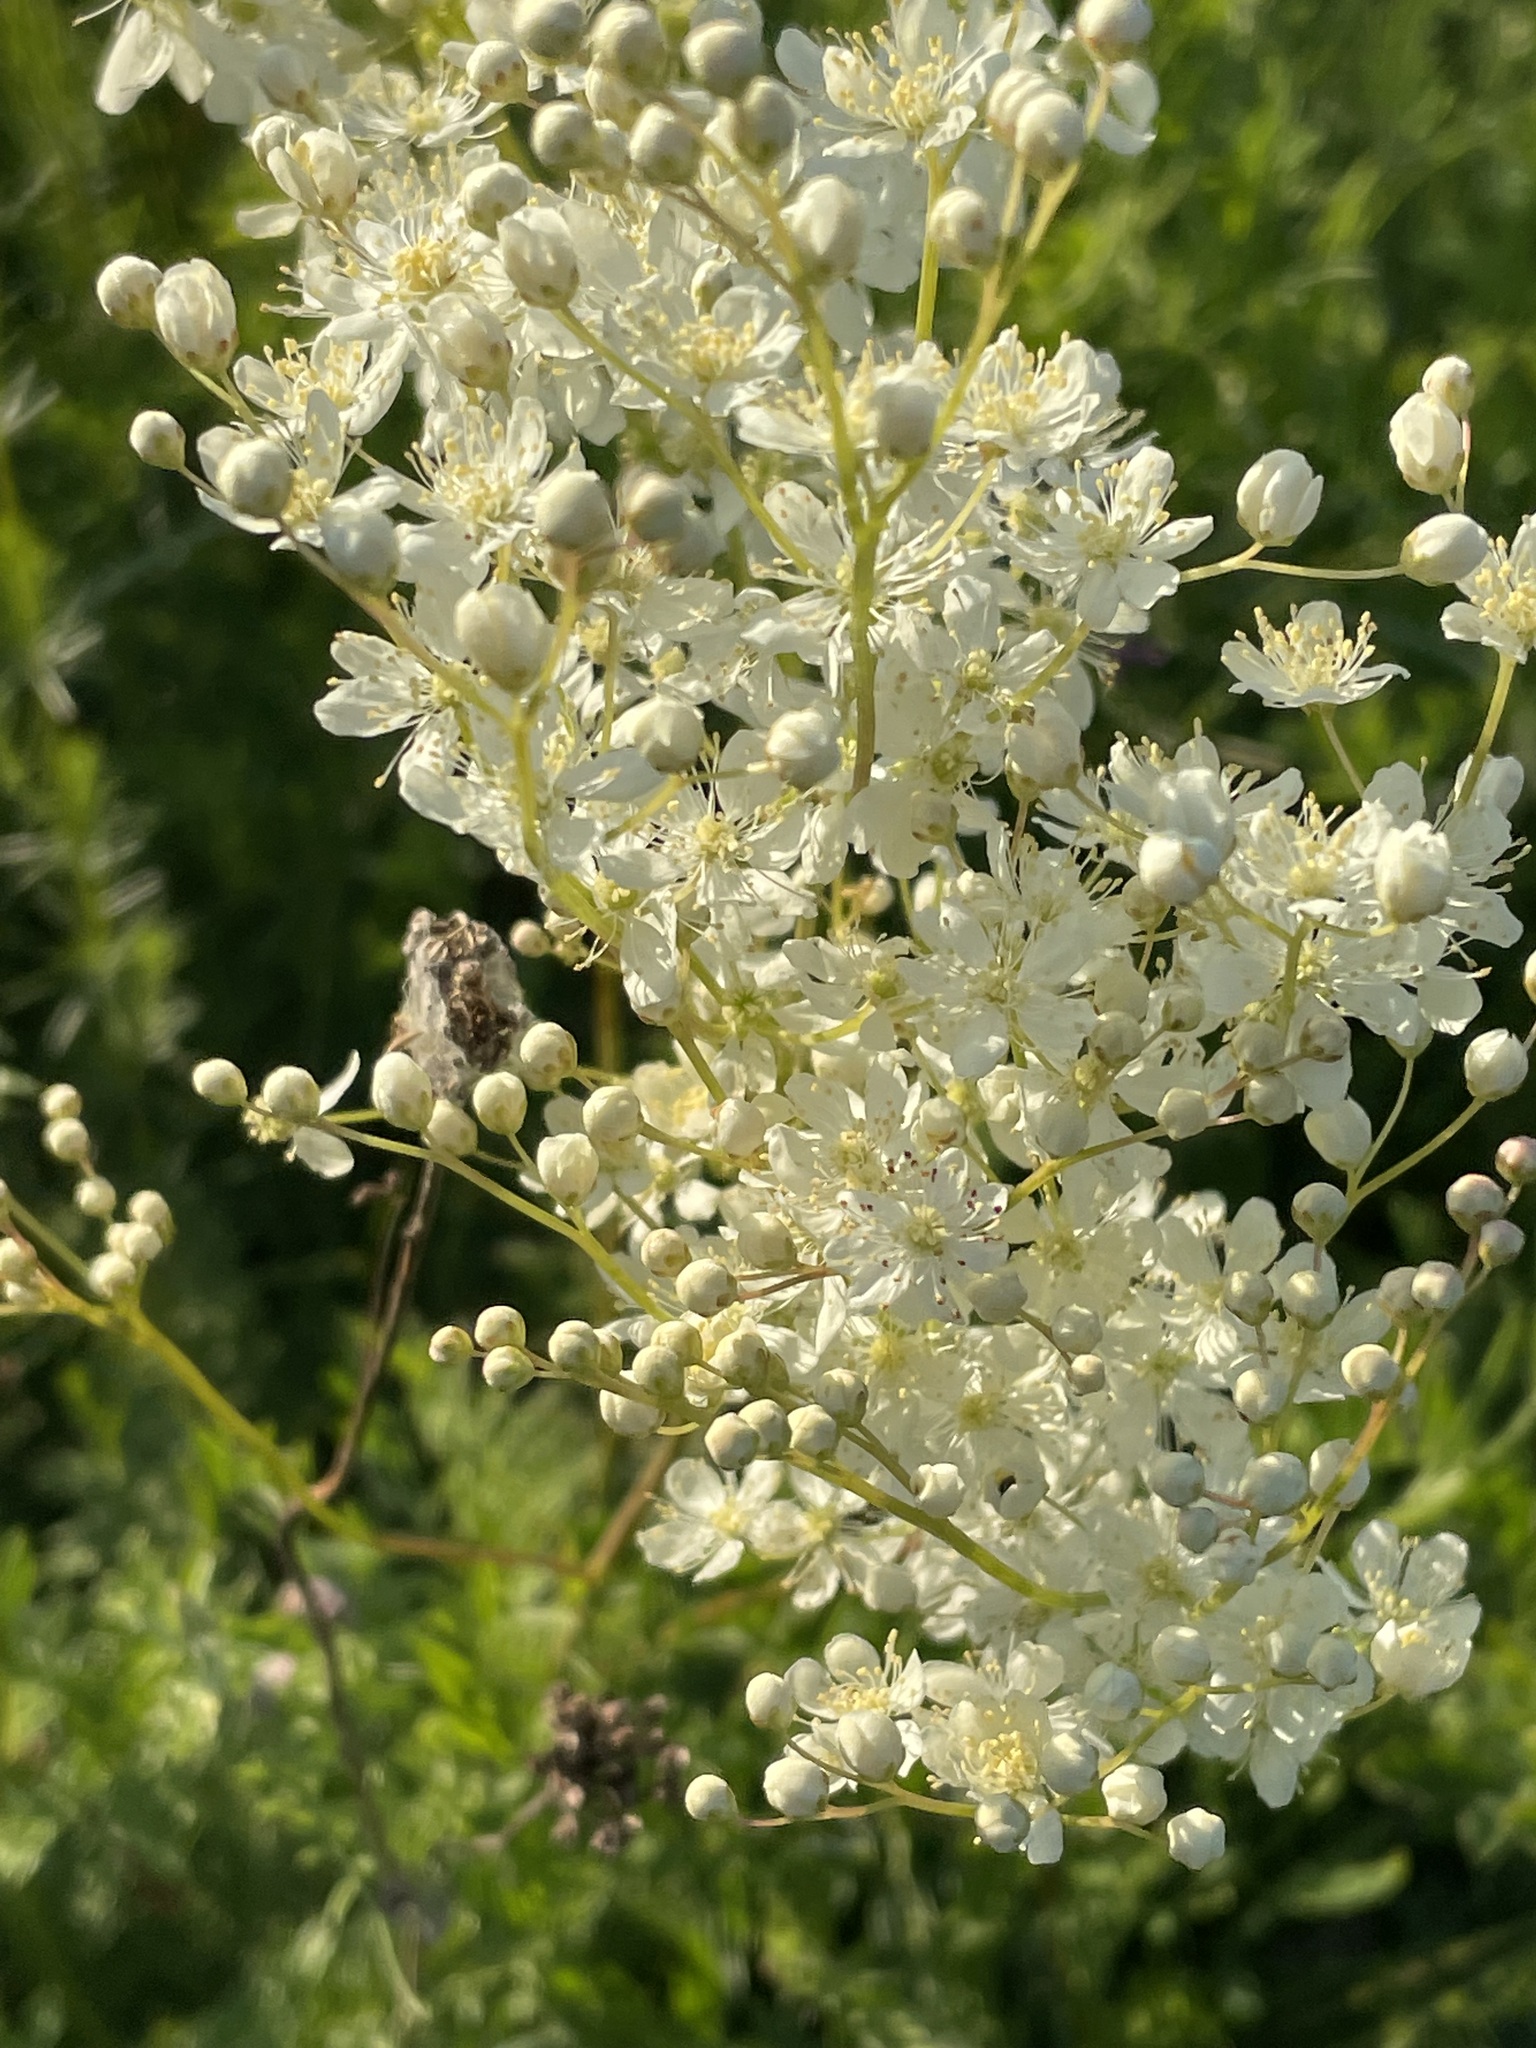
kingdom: Plantae
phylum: Tracheophyta
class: Magnoliopsida
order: Rosales
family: Rosaceae
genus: Filipendula
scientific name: Filipendula vulgaris
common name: Dropwort
